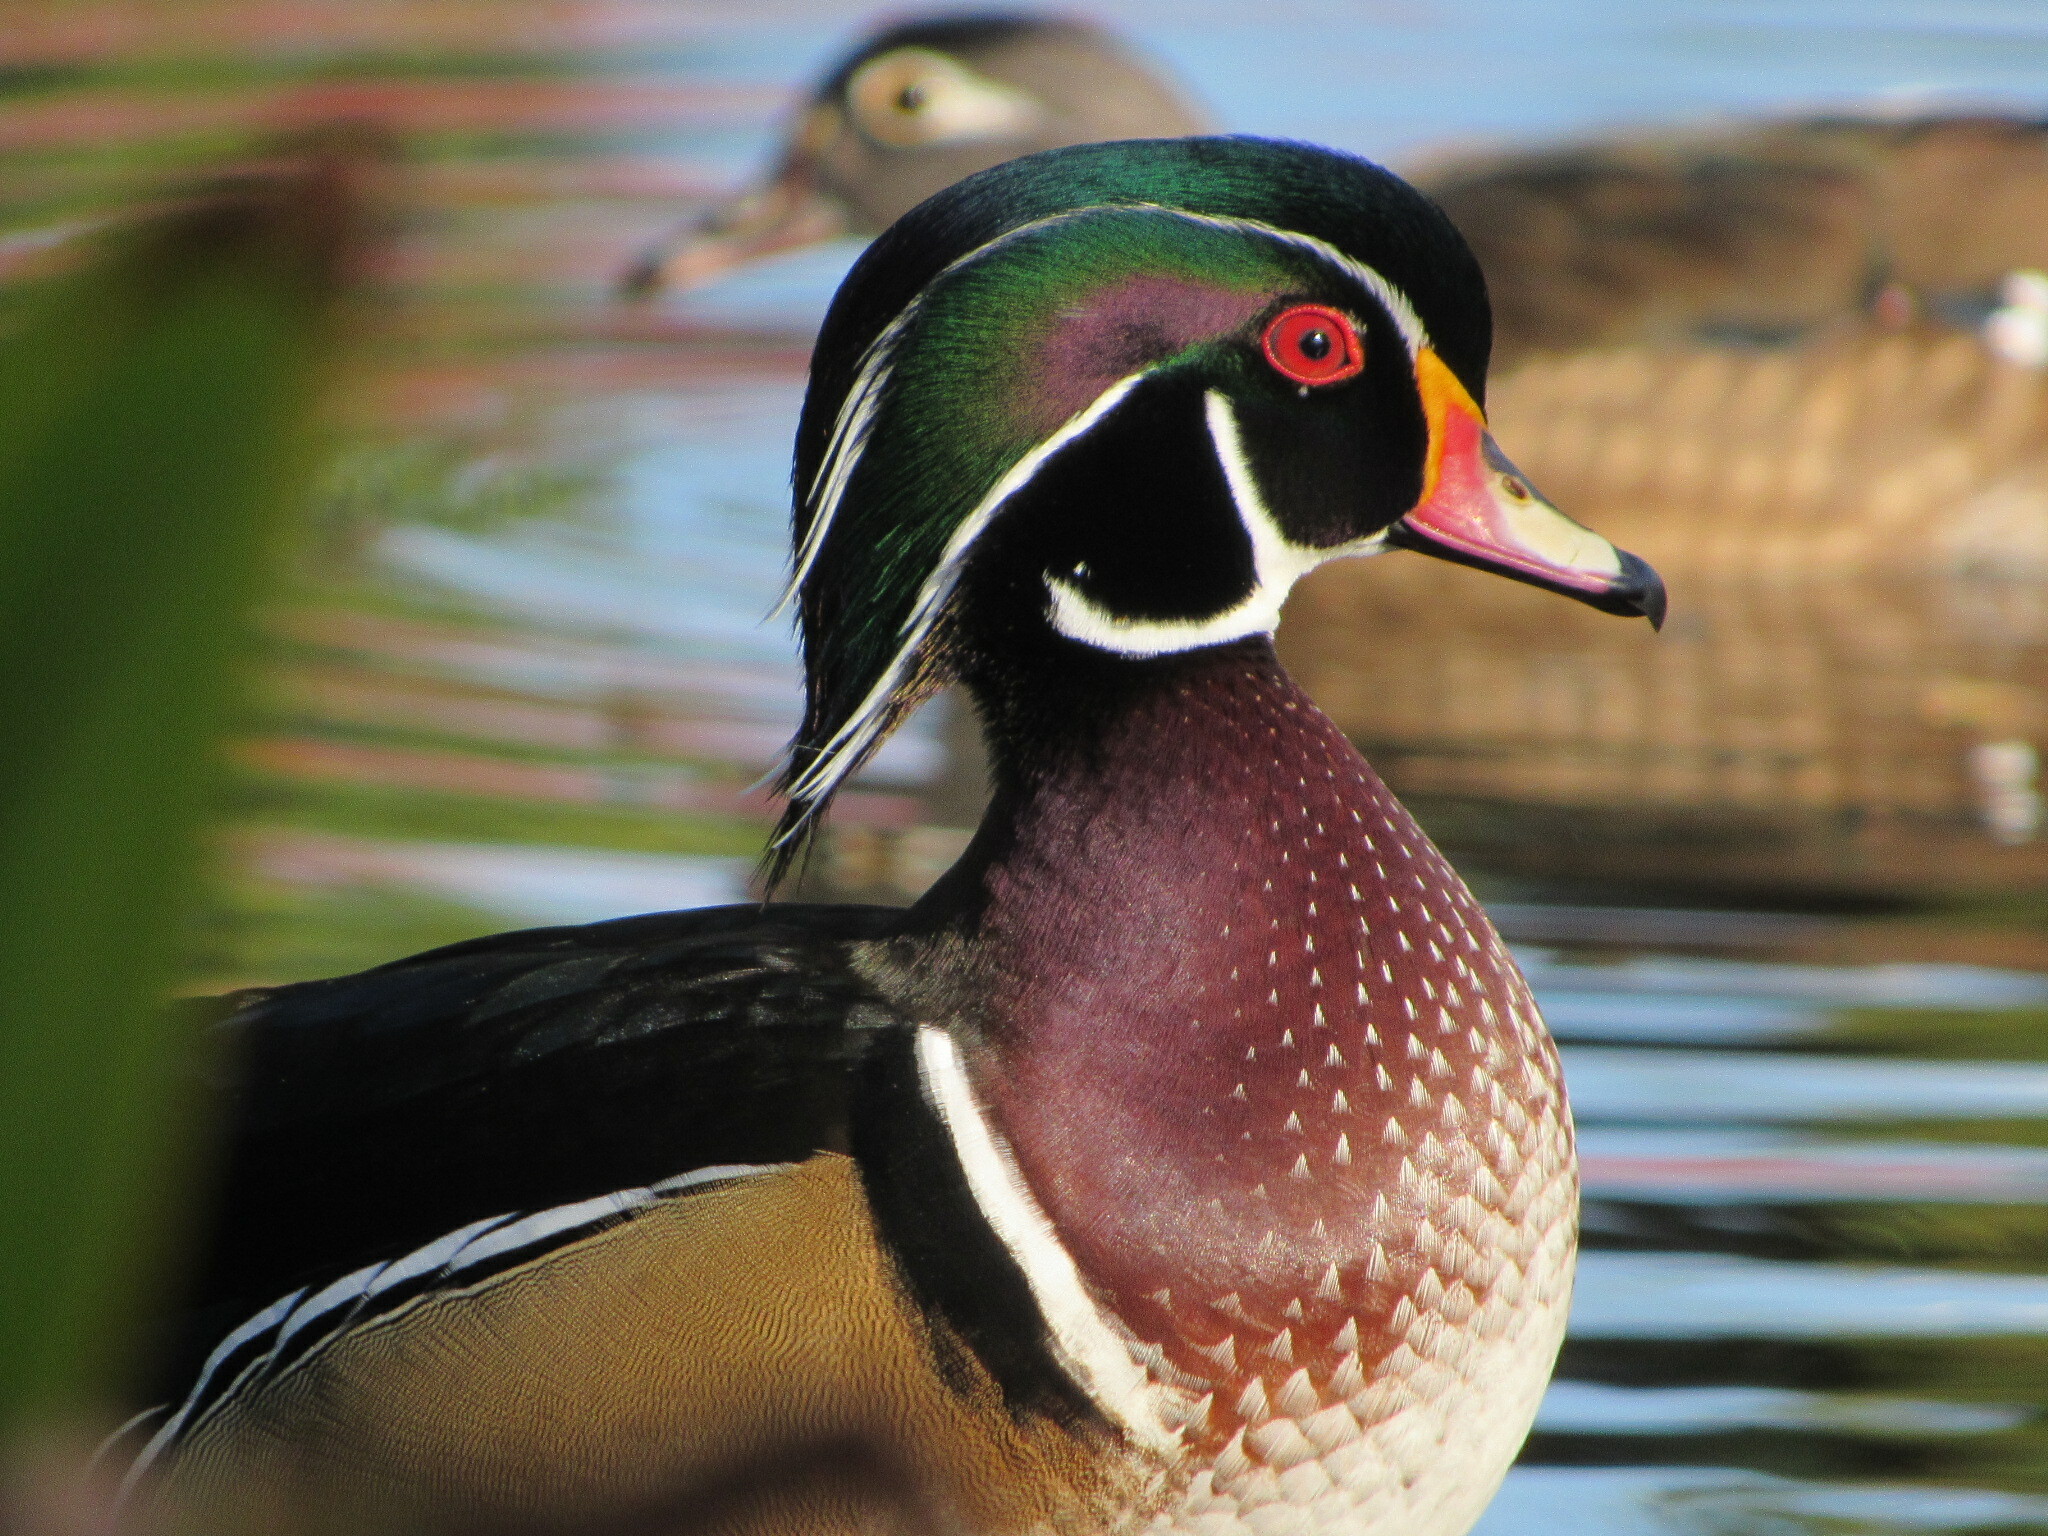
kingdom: Animalia
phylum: Chordata
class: Aves
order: Anseriformes
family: Anatidae
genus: Aix
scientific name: Aix sponsa
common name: Wood duck
